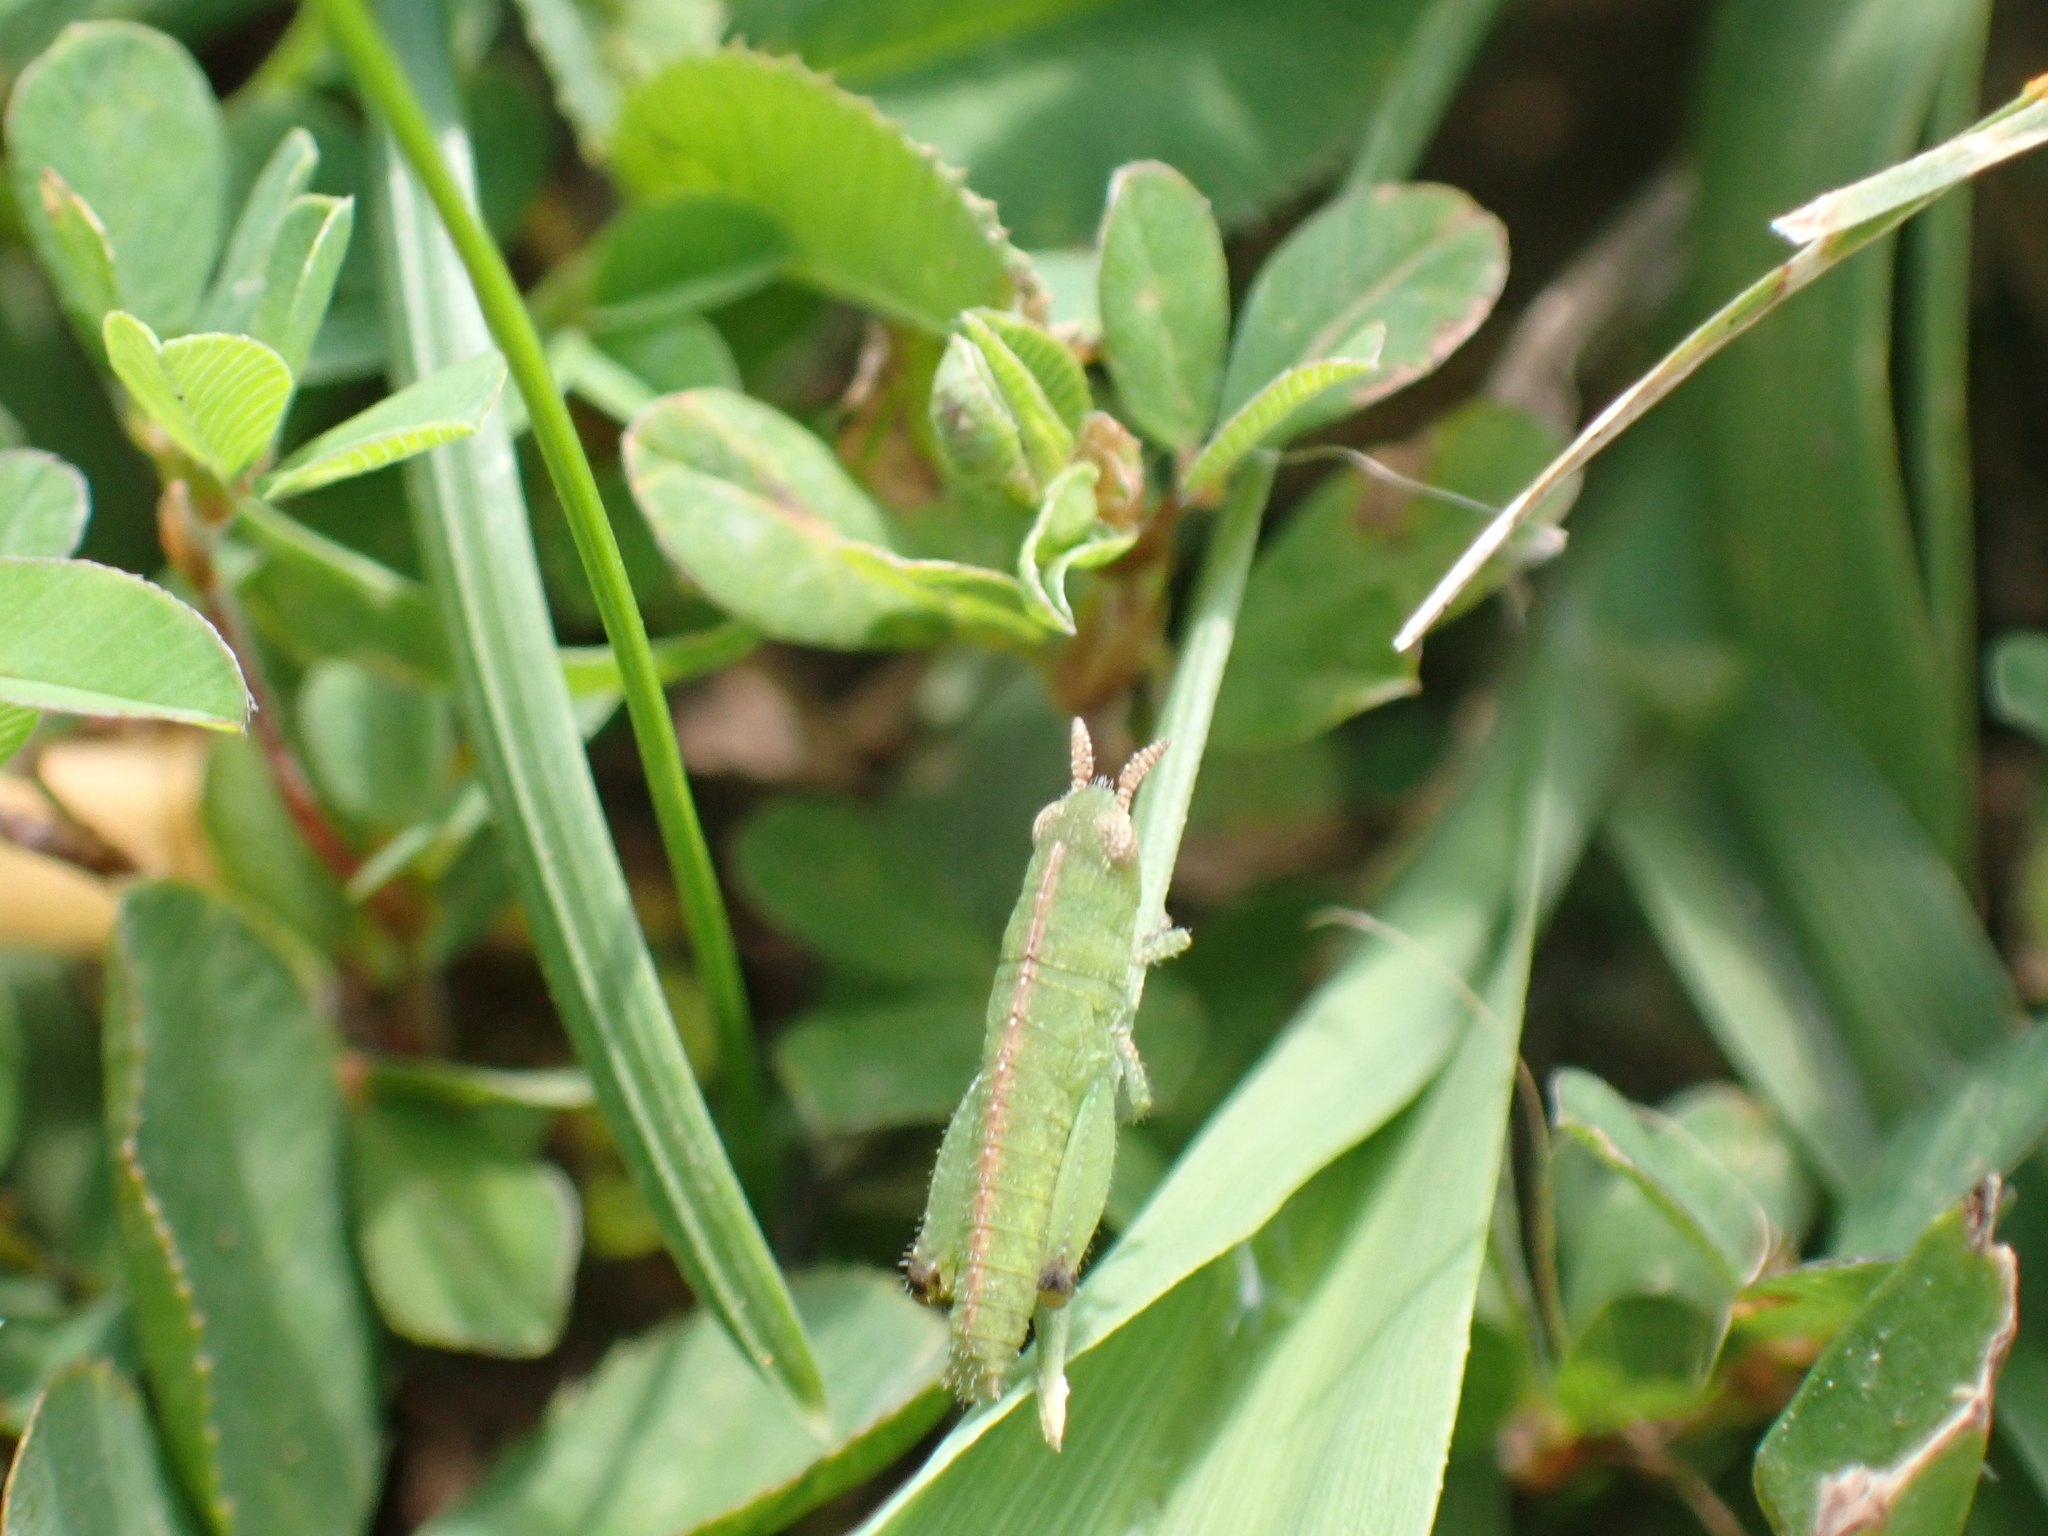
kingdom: Animalia
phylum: Arthropoda
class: Insecta
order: Orthoptera
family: Acrididae
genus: Chortophaga
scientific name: Chortophaga viridifasciata
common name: Green-striped grasshopper
